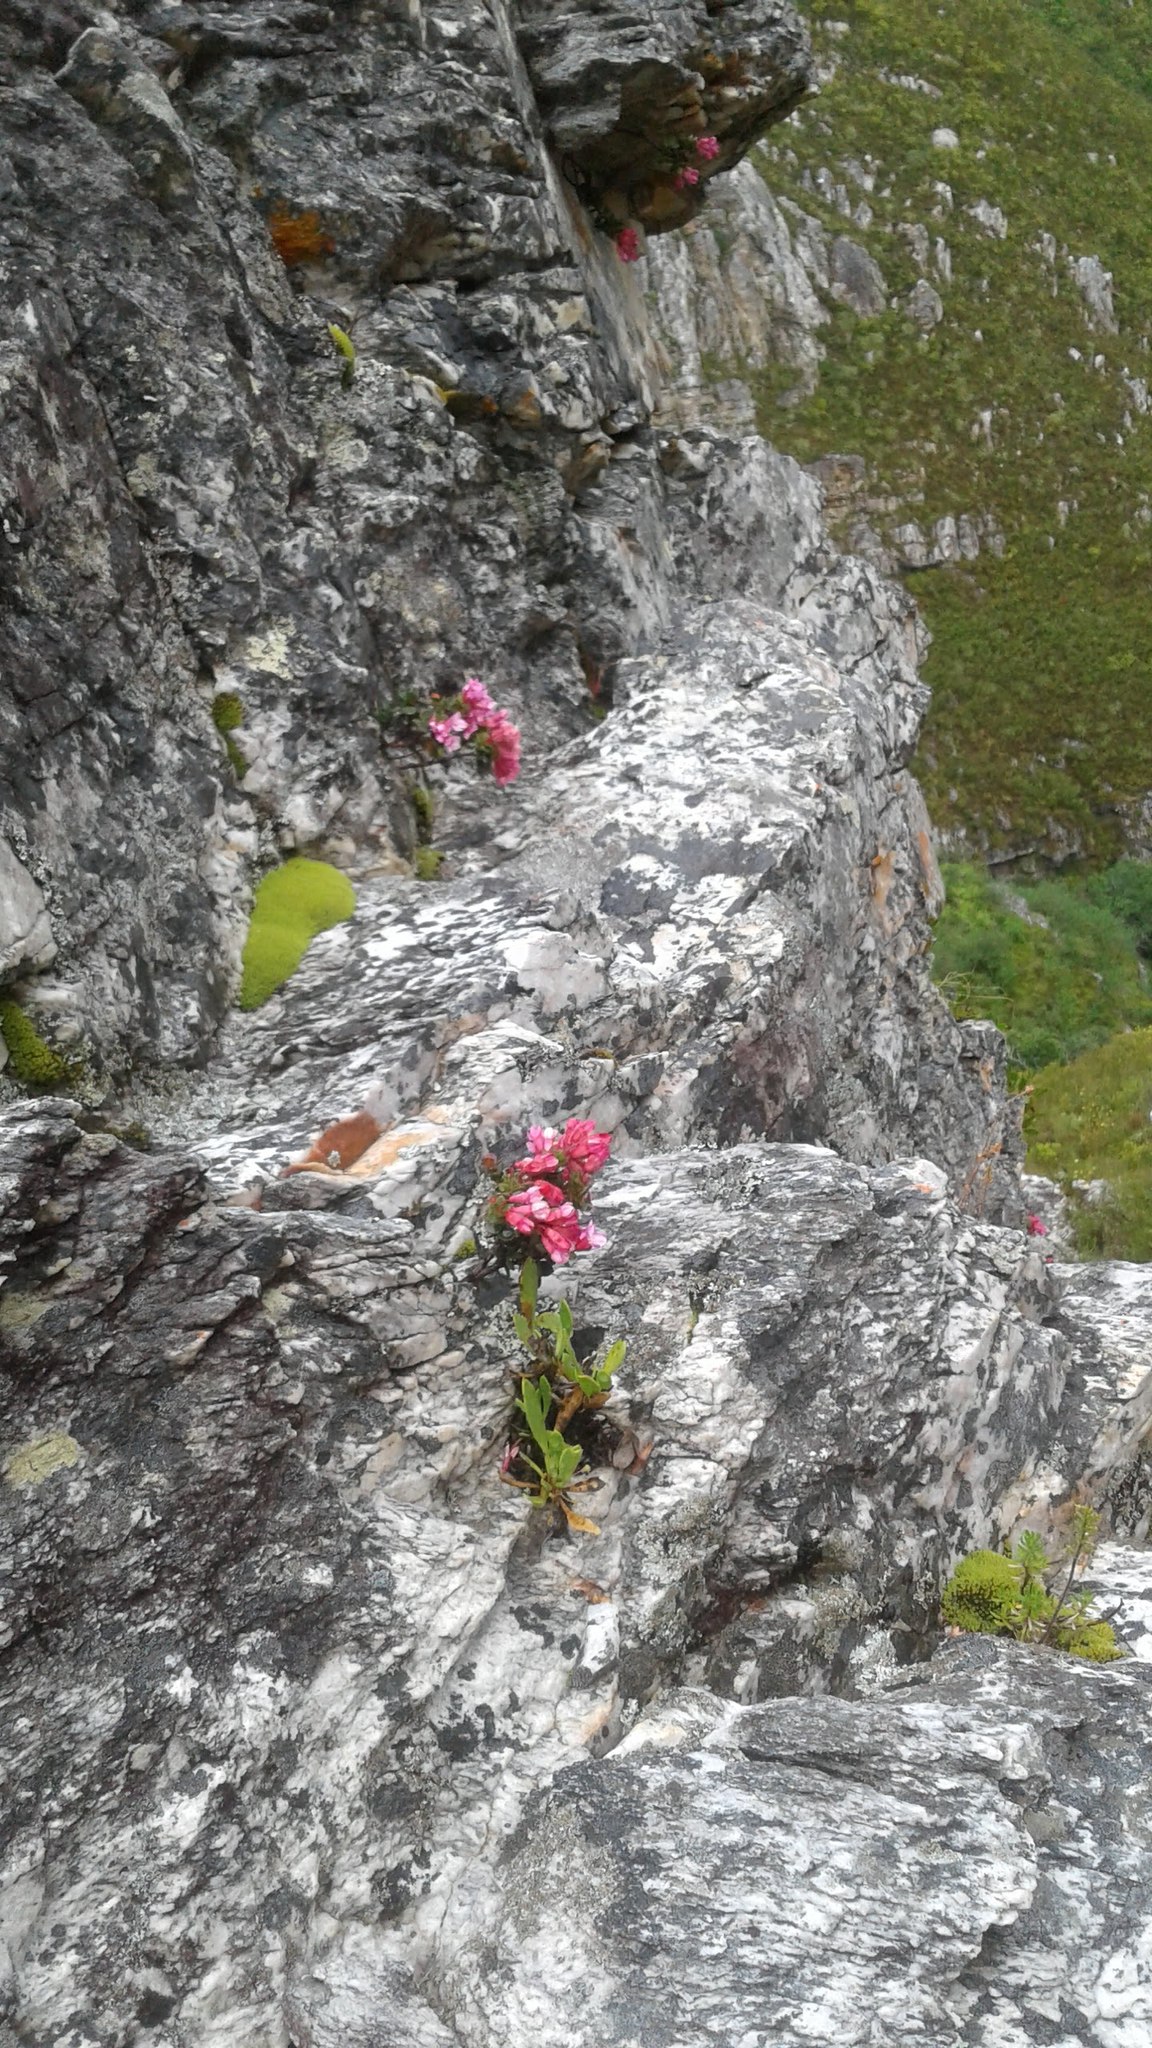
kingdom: Plantae
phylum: Tracheophyta
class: Magnoliopsida
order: Myrtales
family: Penaeaceae
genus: Brachysiphon
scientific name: Brachysiphon rupestris
